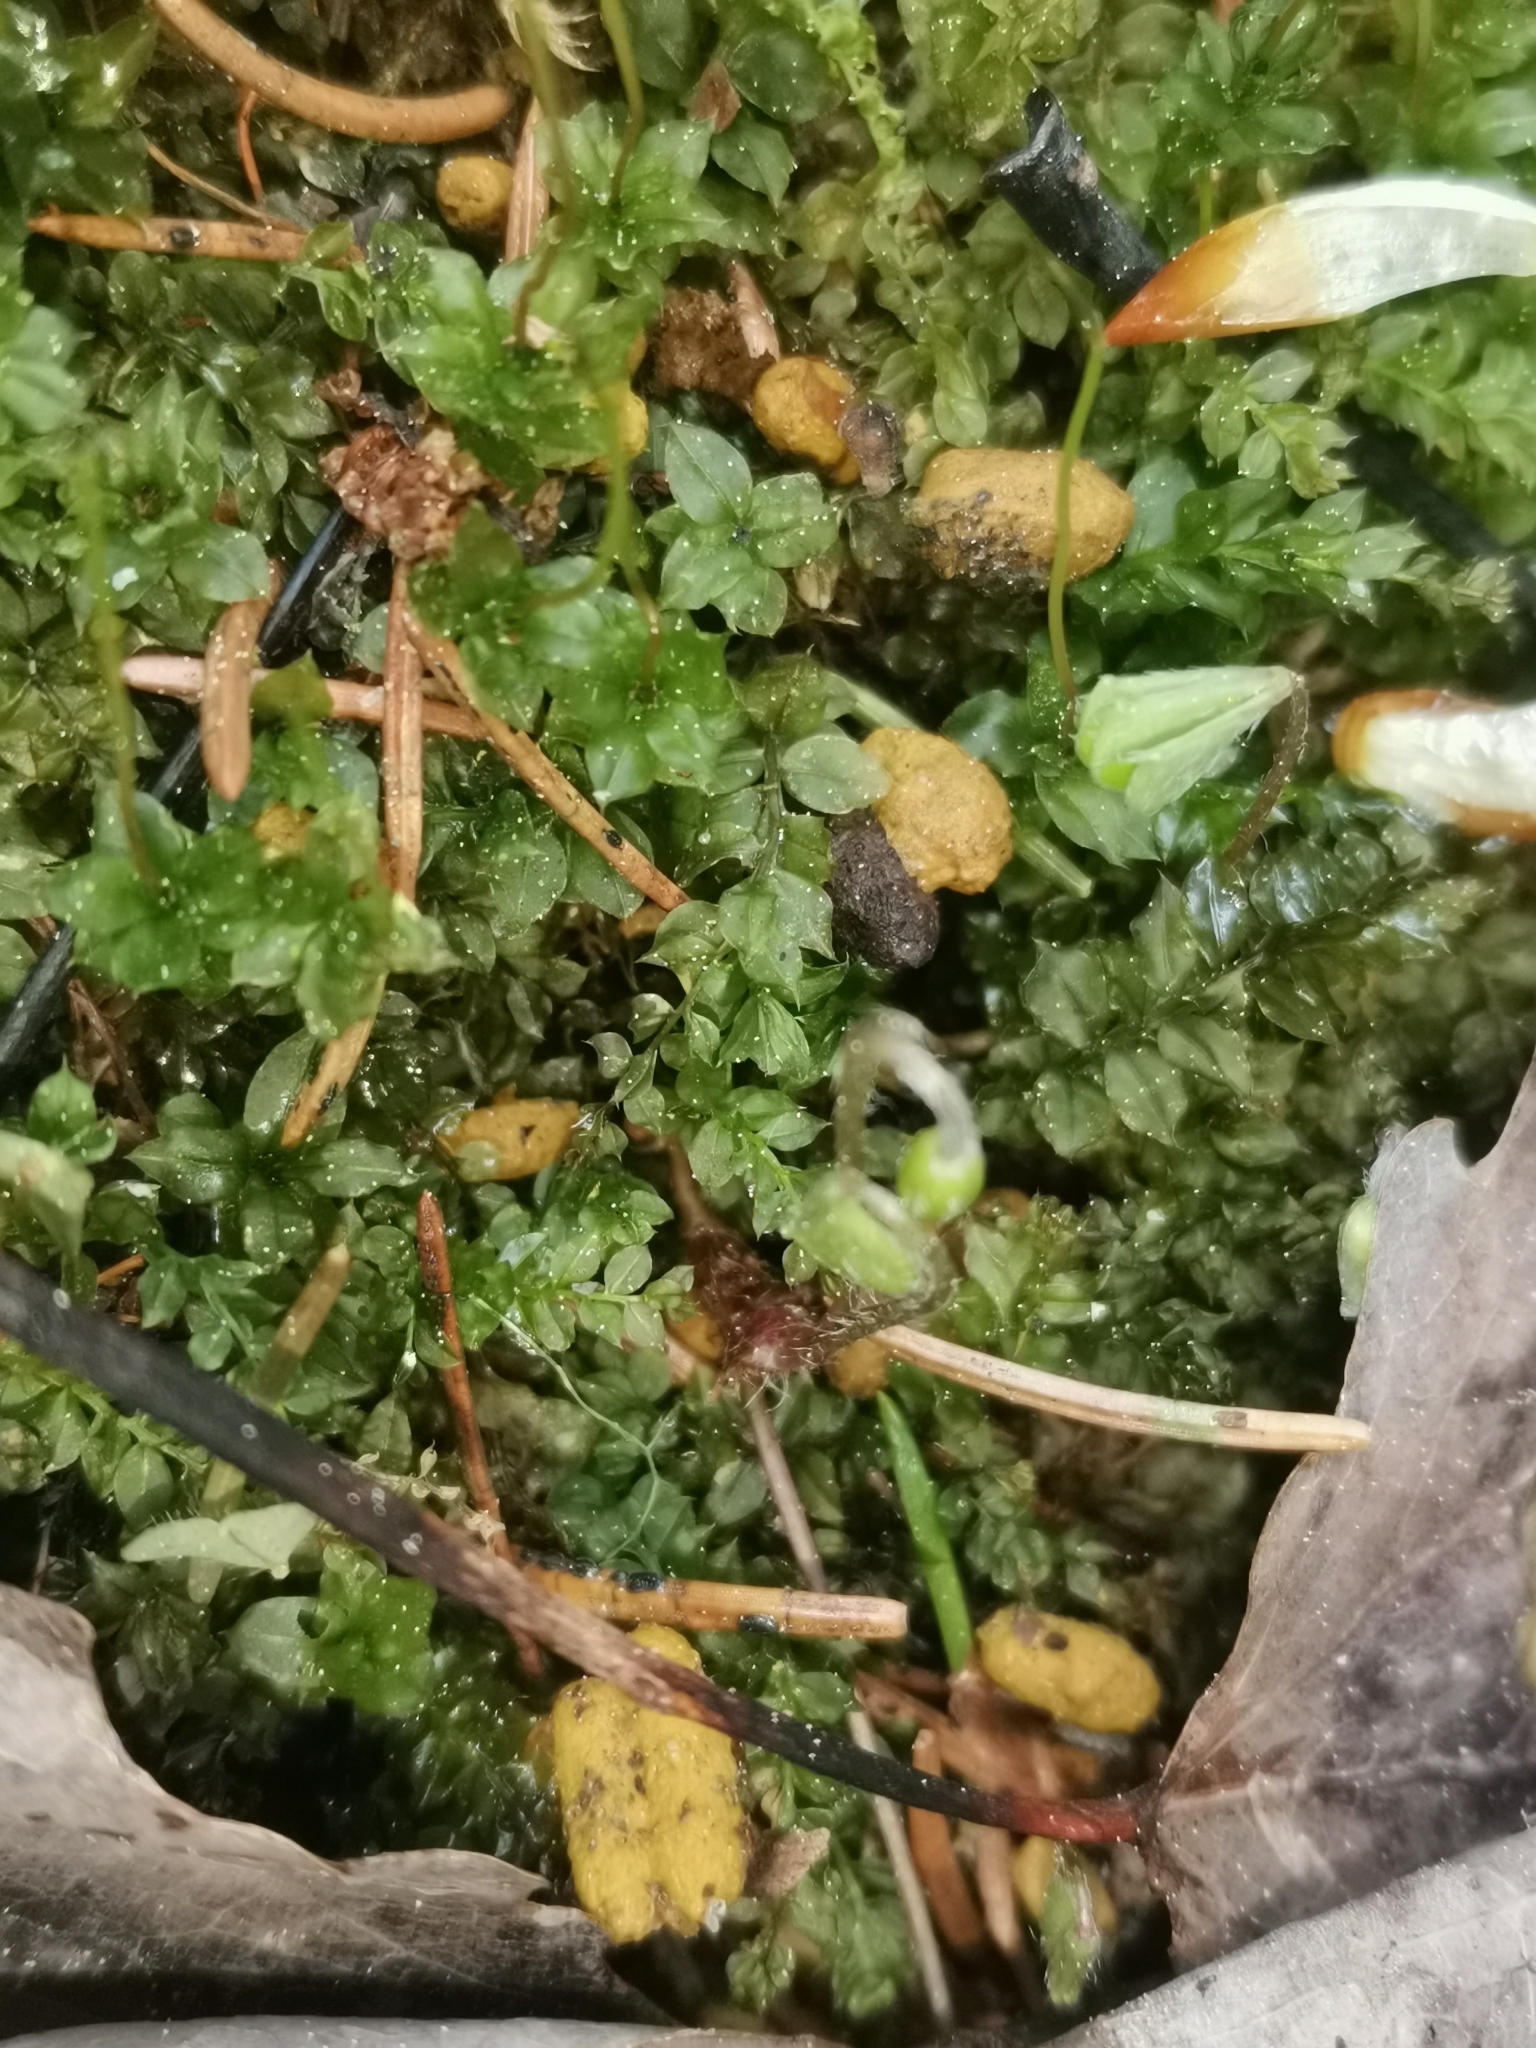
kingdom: Animalia
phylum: Chordata
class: Mammalia
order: Rodentia
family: Sciuridae
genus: Pteromys
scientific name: Pteromys volans
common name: Siberian flying squirrel
